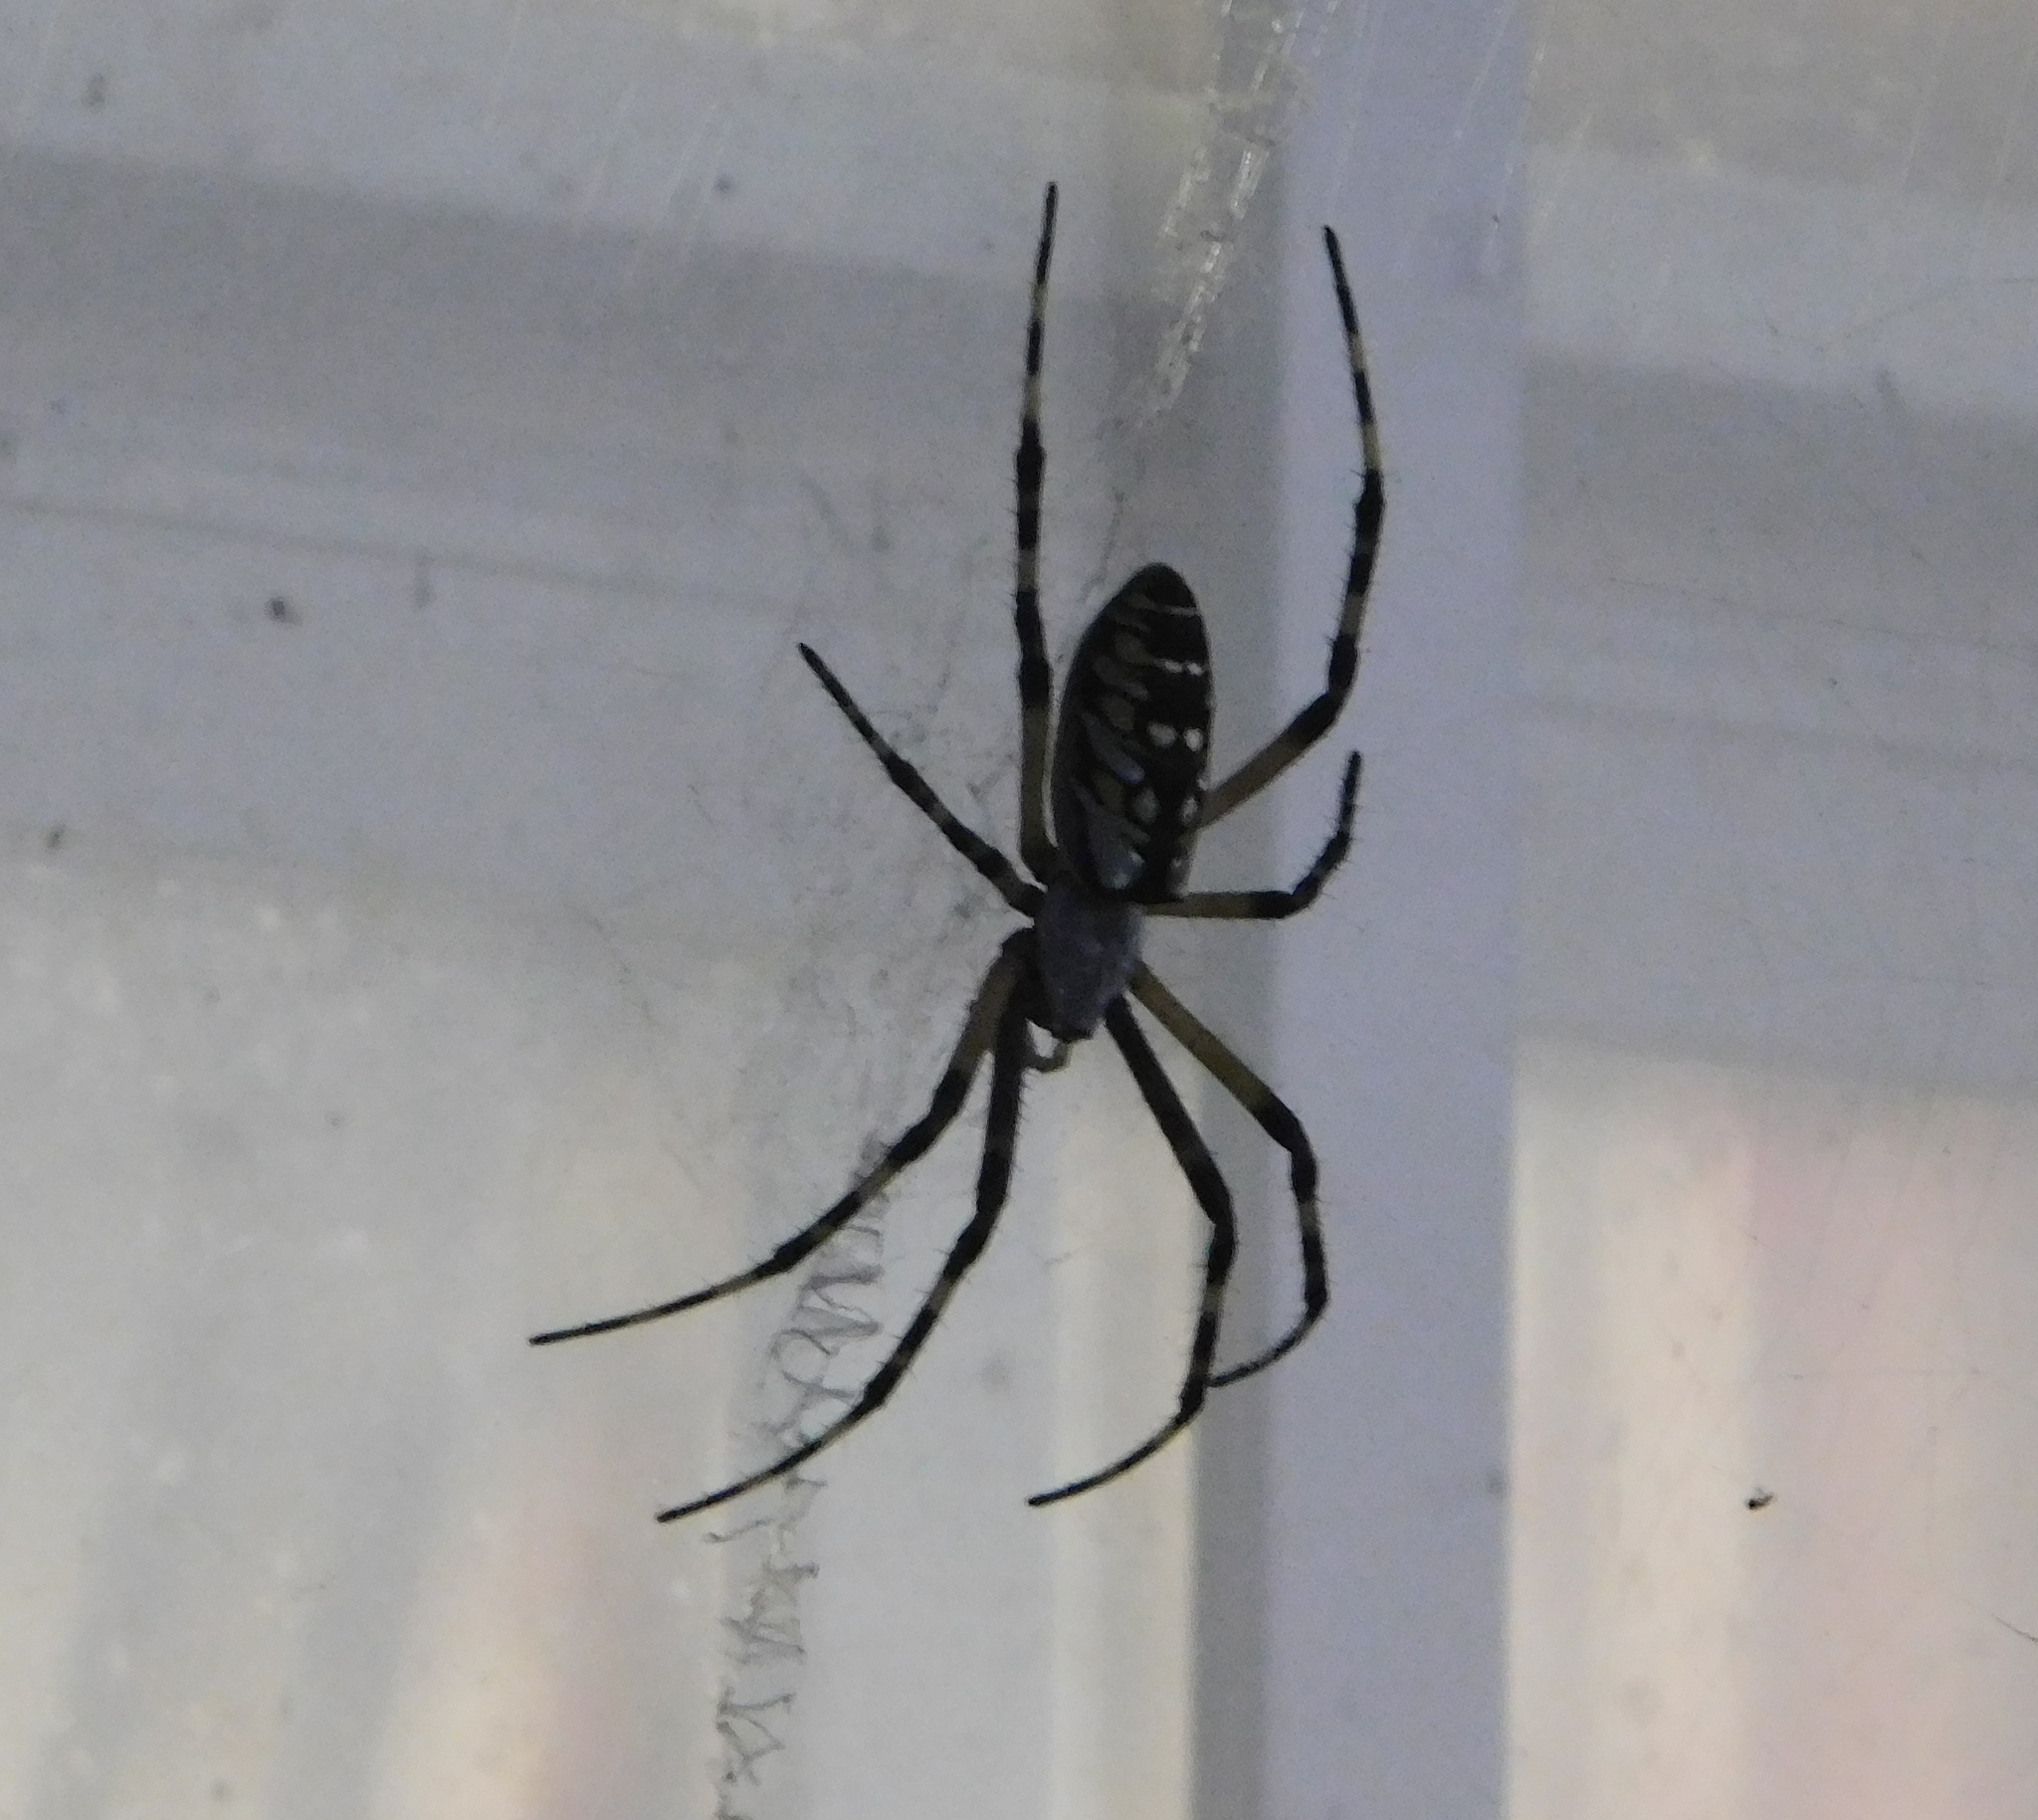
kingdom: Animalia
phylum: Arthropoda
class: Arachnida
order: Araneae
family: Araneidae
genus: Argiope
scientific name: Argiope aurantia
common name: Orb weavers
